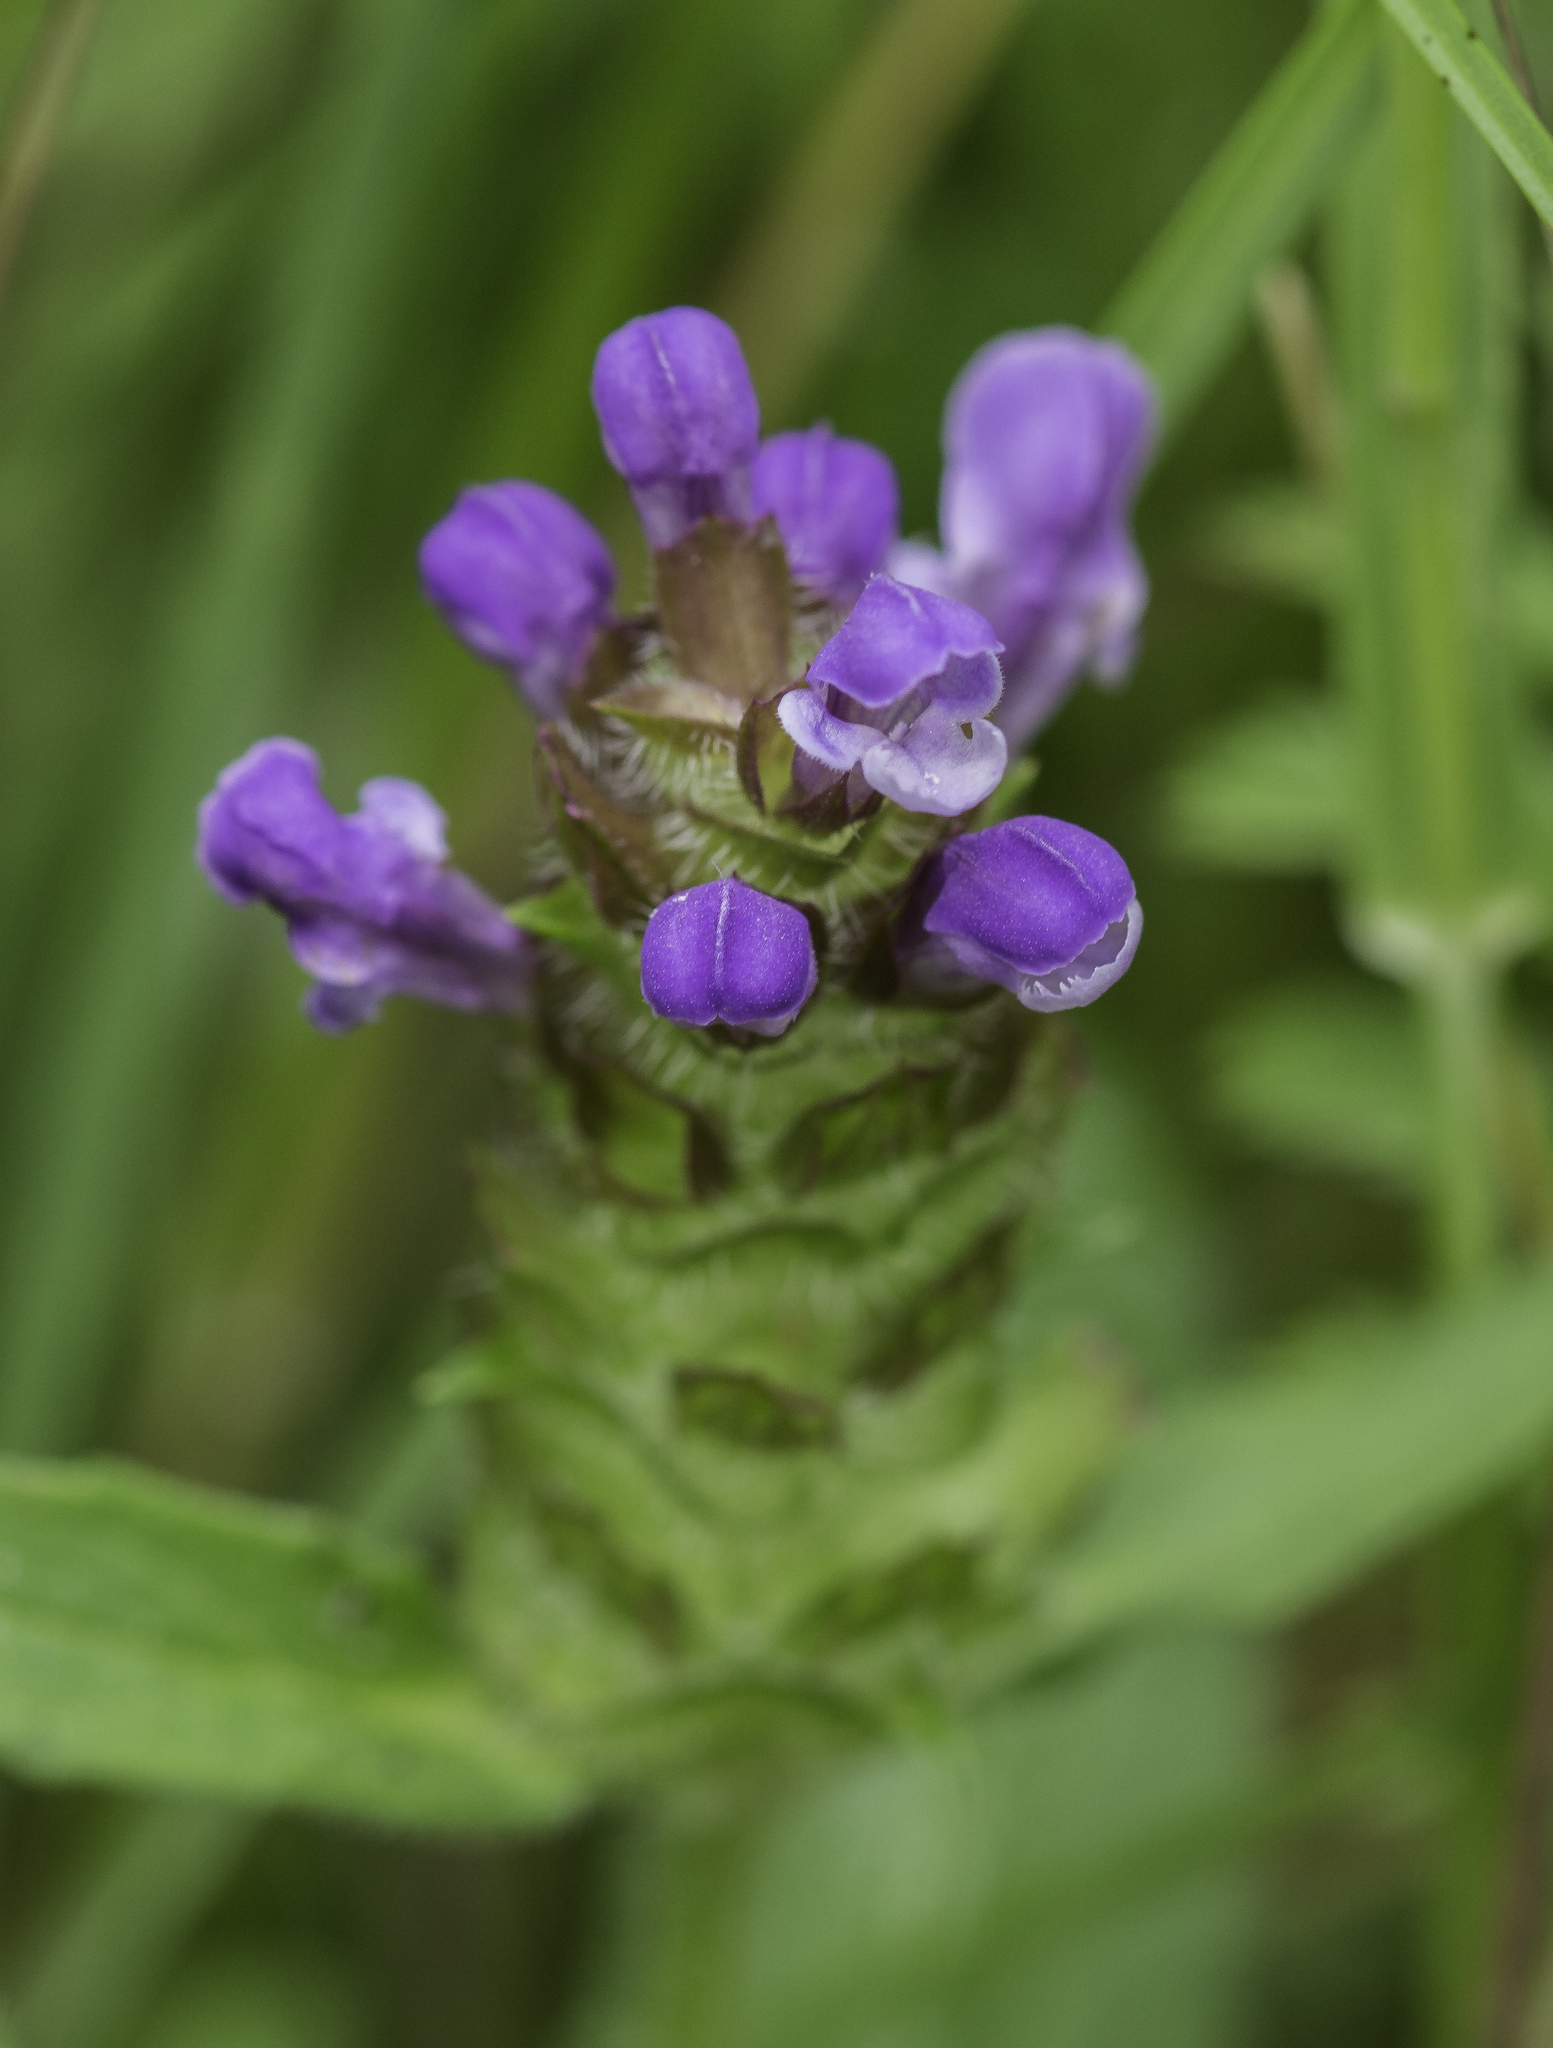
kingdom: Plantae
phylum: Tracheophyta
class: Magnoliopsida
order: Lamiales
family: Lamiaceae
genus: Prunella
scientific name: Prunella vulgaris
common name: Heal-all
